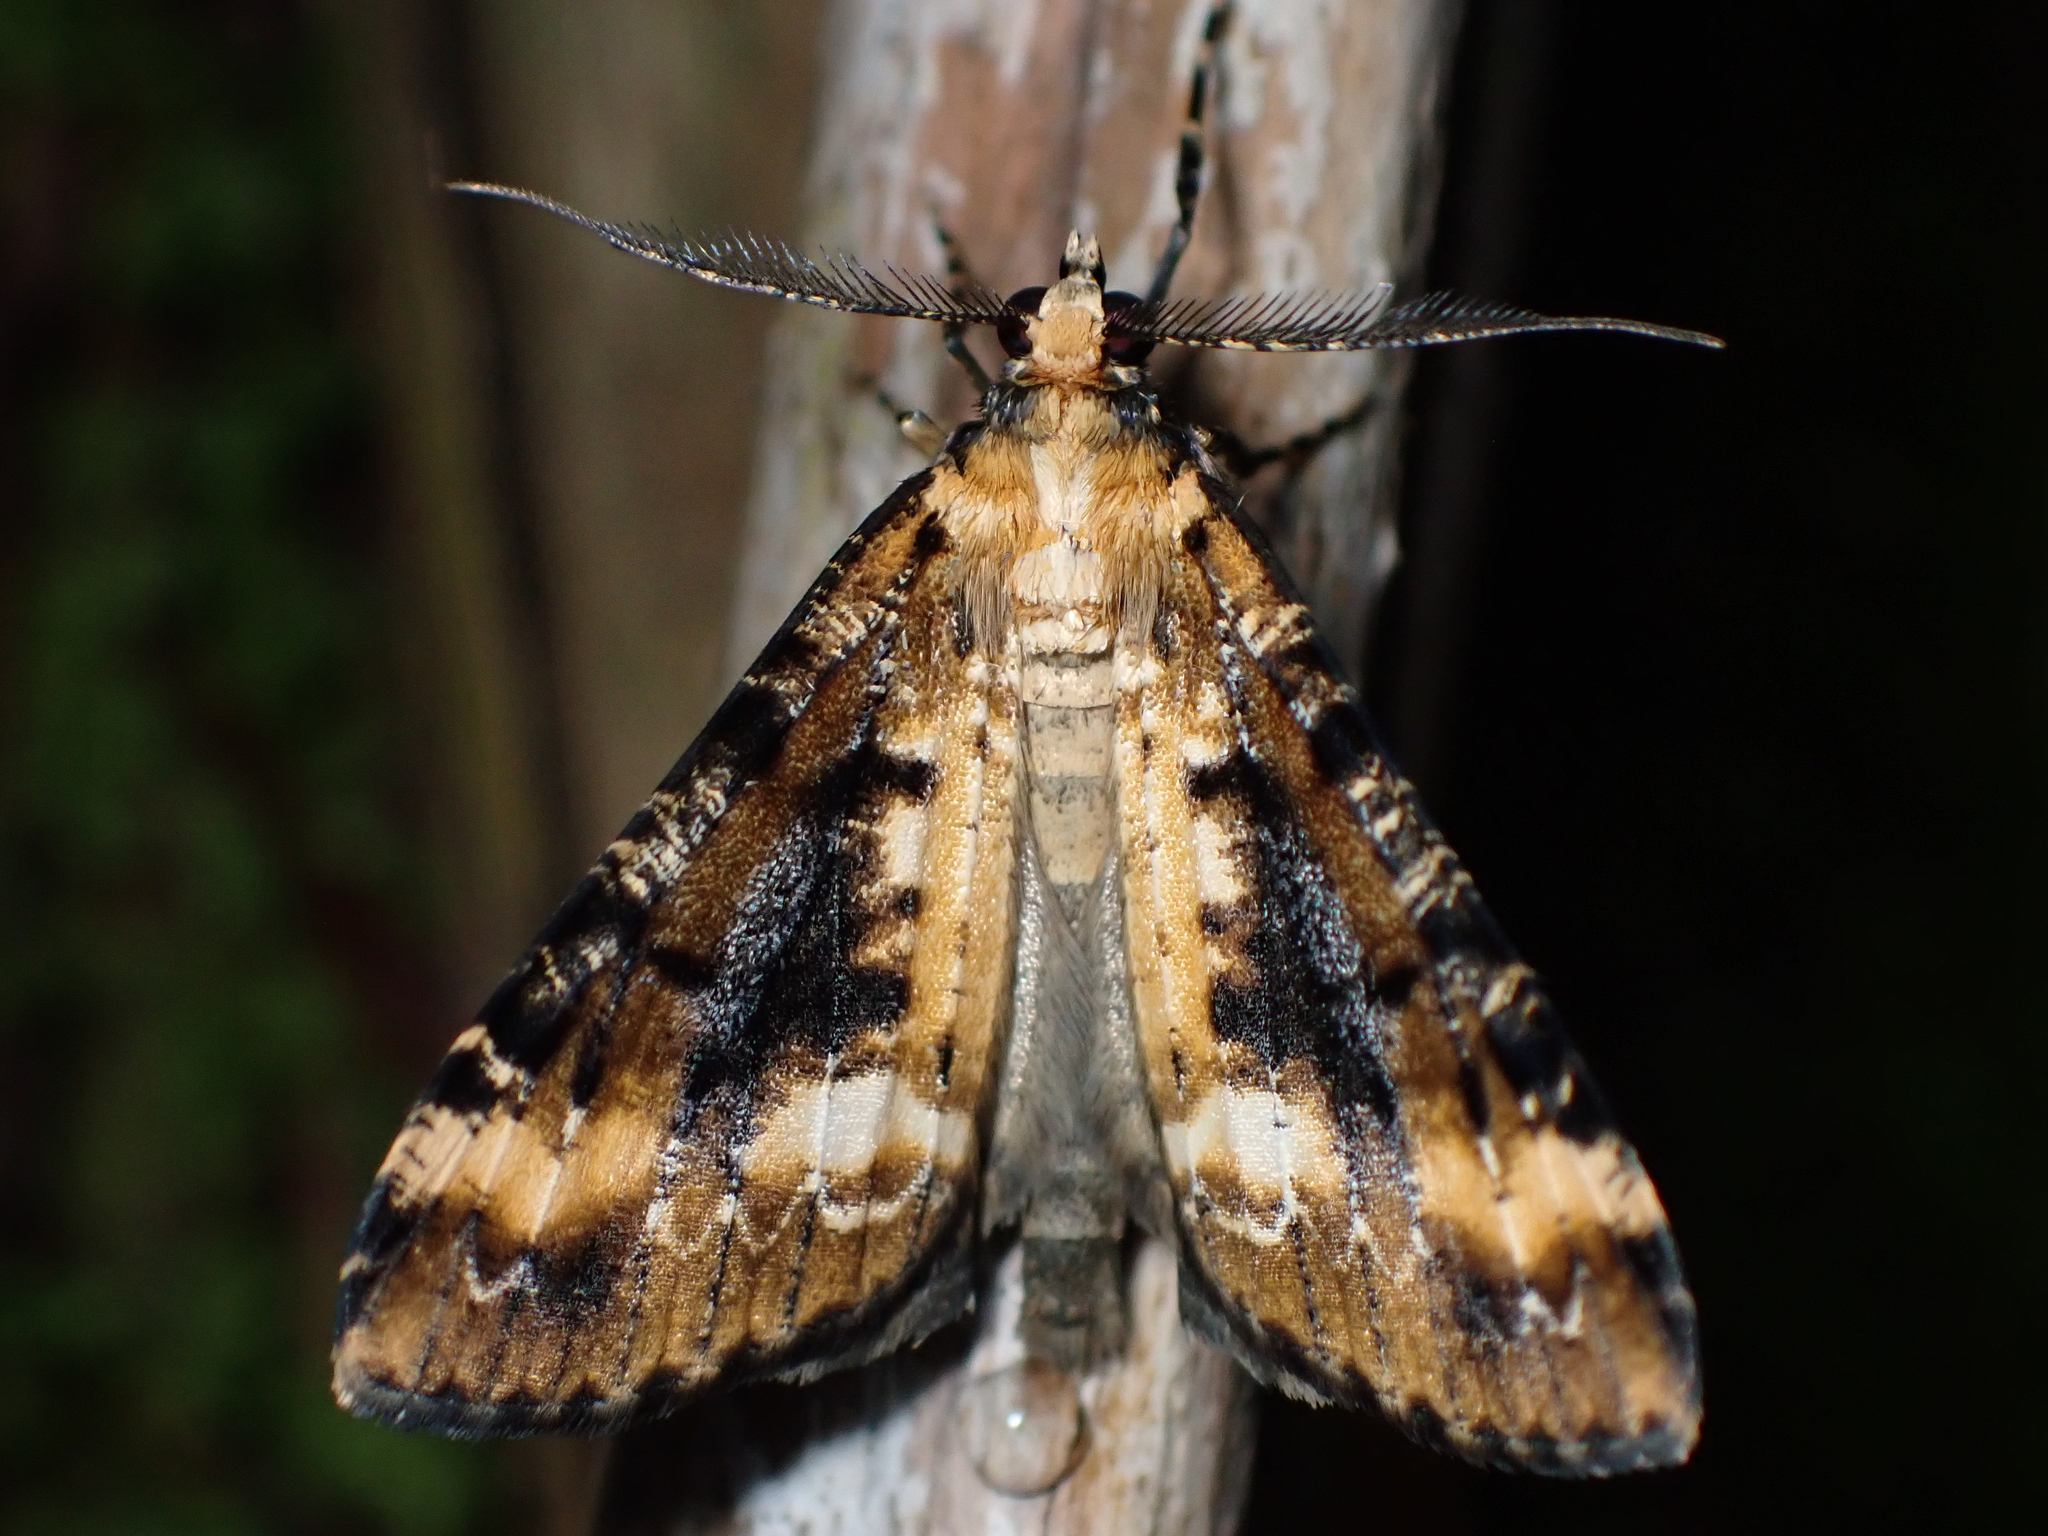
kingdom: Animalia
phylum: Arthropoda
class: Insecta
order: Lepidoptera
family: Geometridae
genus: Pseudocoremia
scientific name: Pseudocoremia leucelaea
